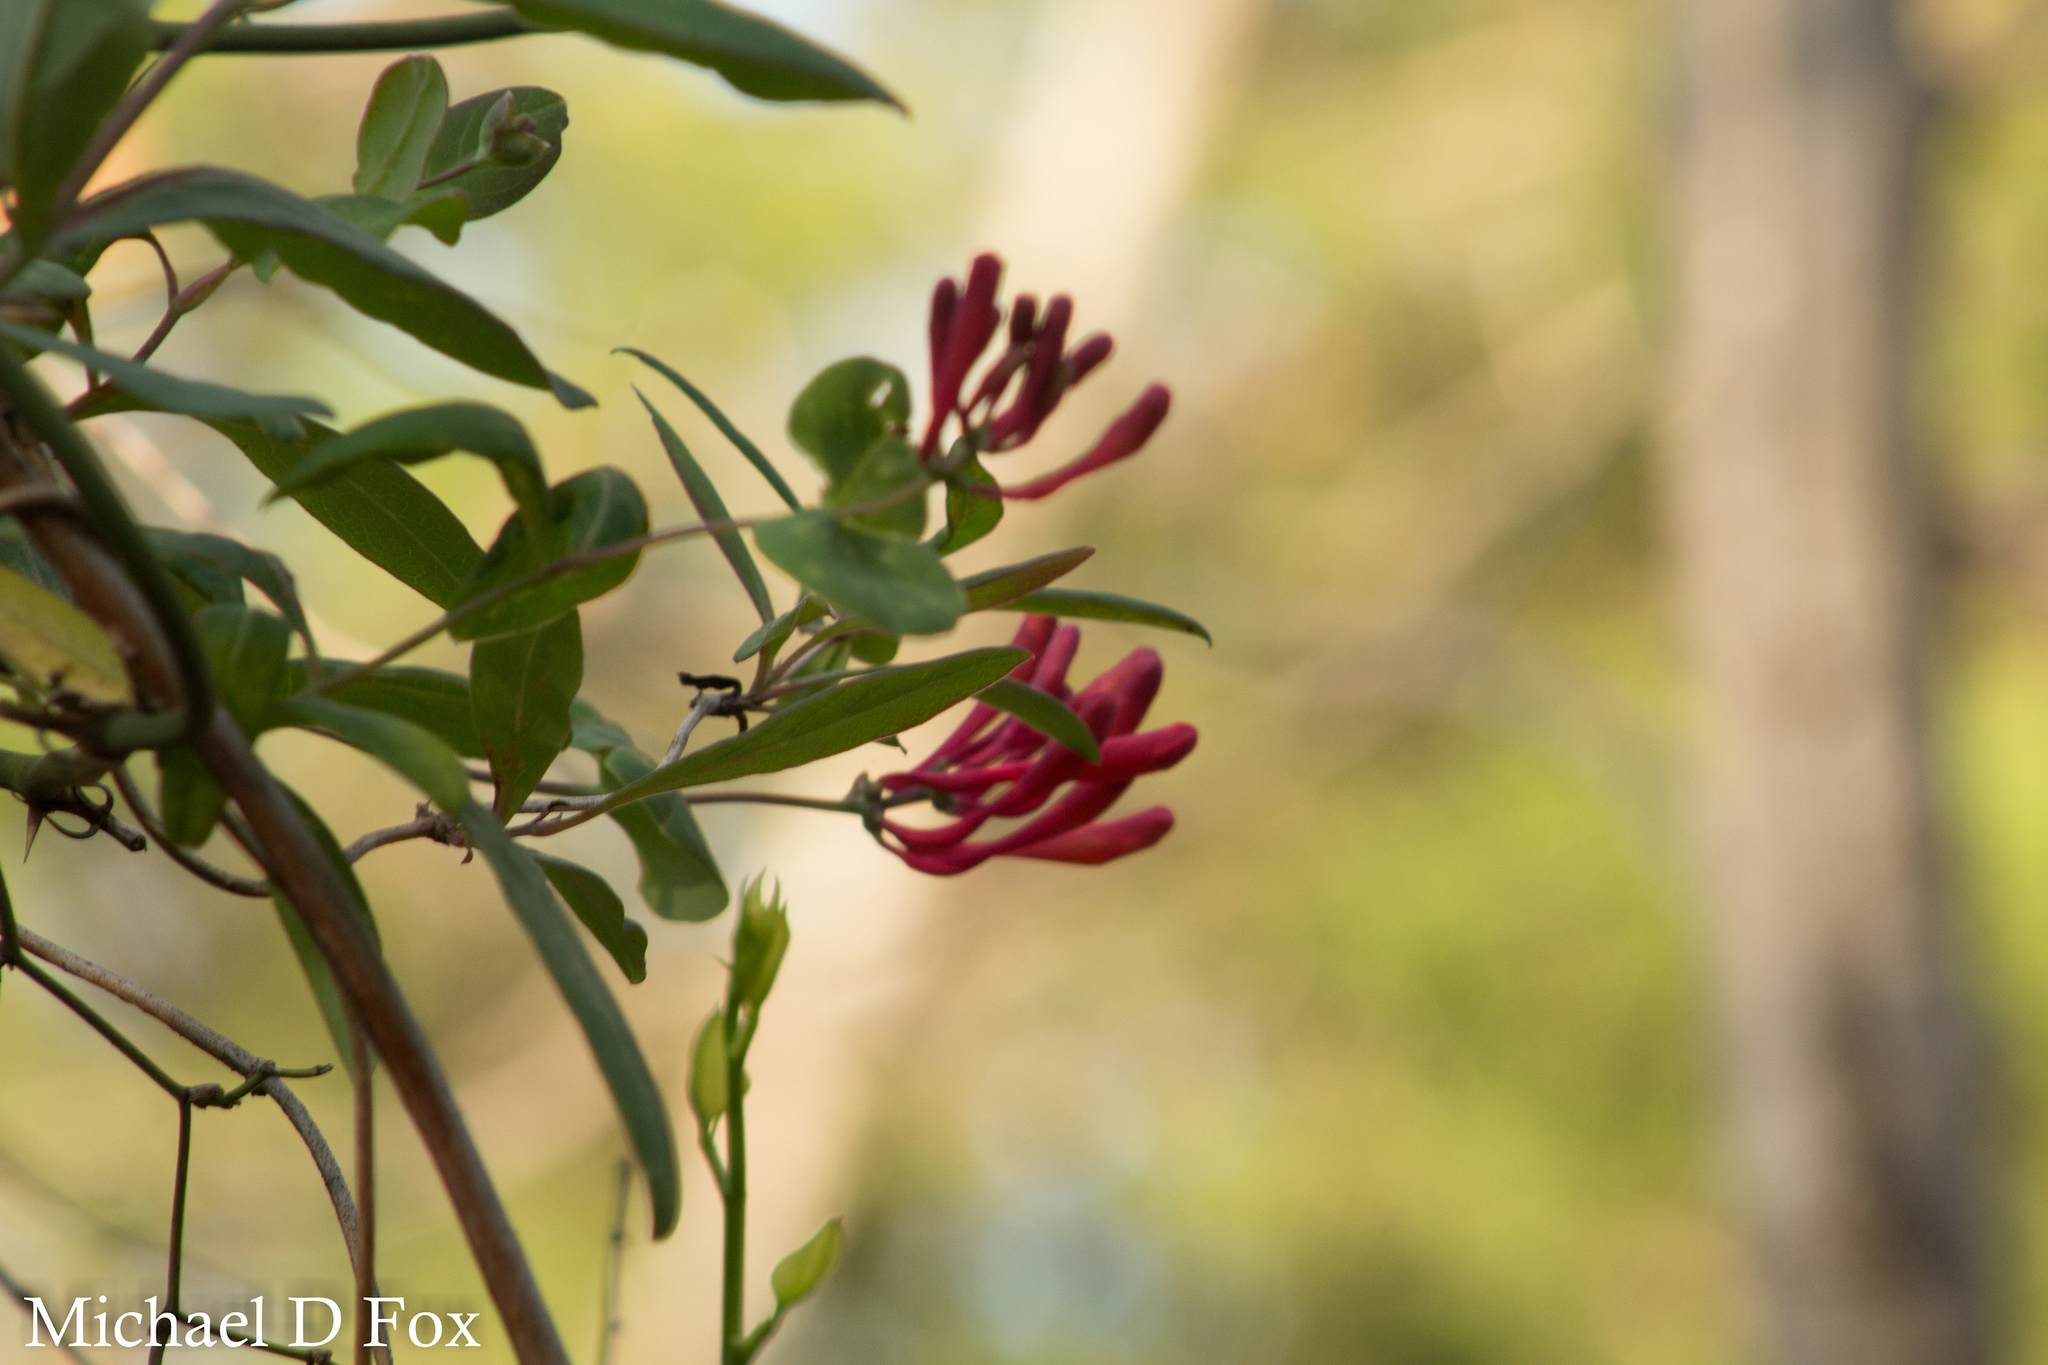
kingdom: Plantae
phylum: Tracheophyta
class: Magnoliopsida
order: Dipsacales
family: Caprifoliaceae
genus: Lonicera
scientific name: Lonicera sempervirens
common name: Coral honeysuckle
